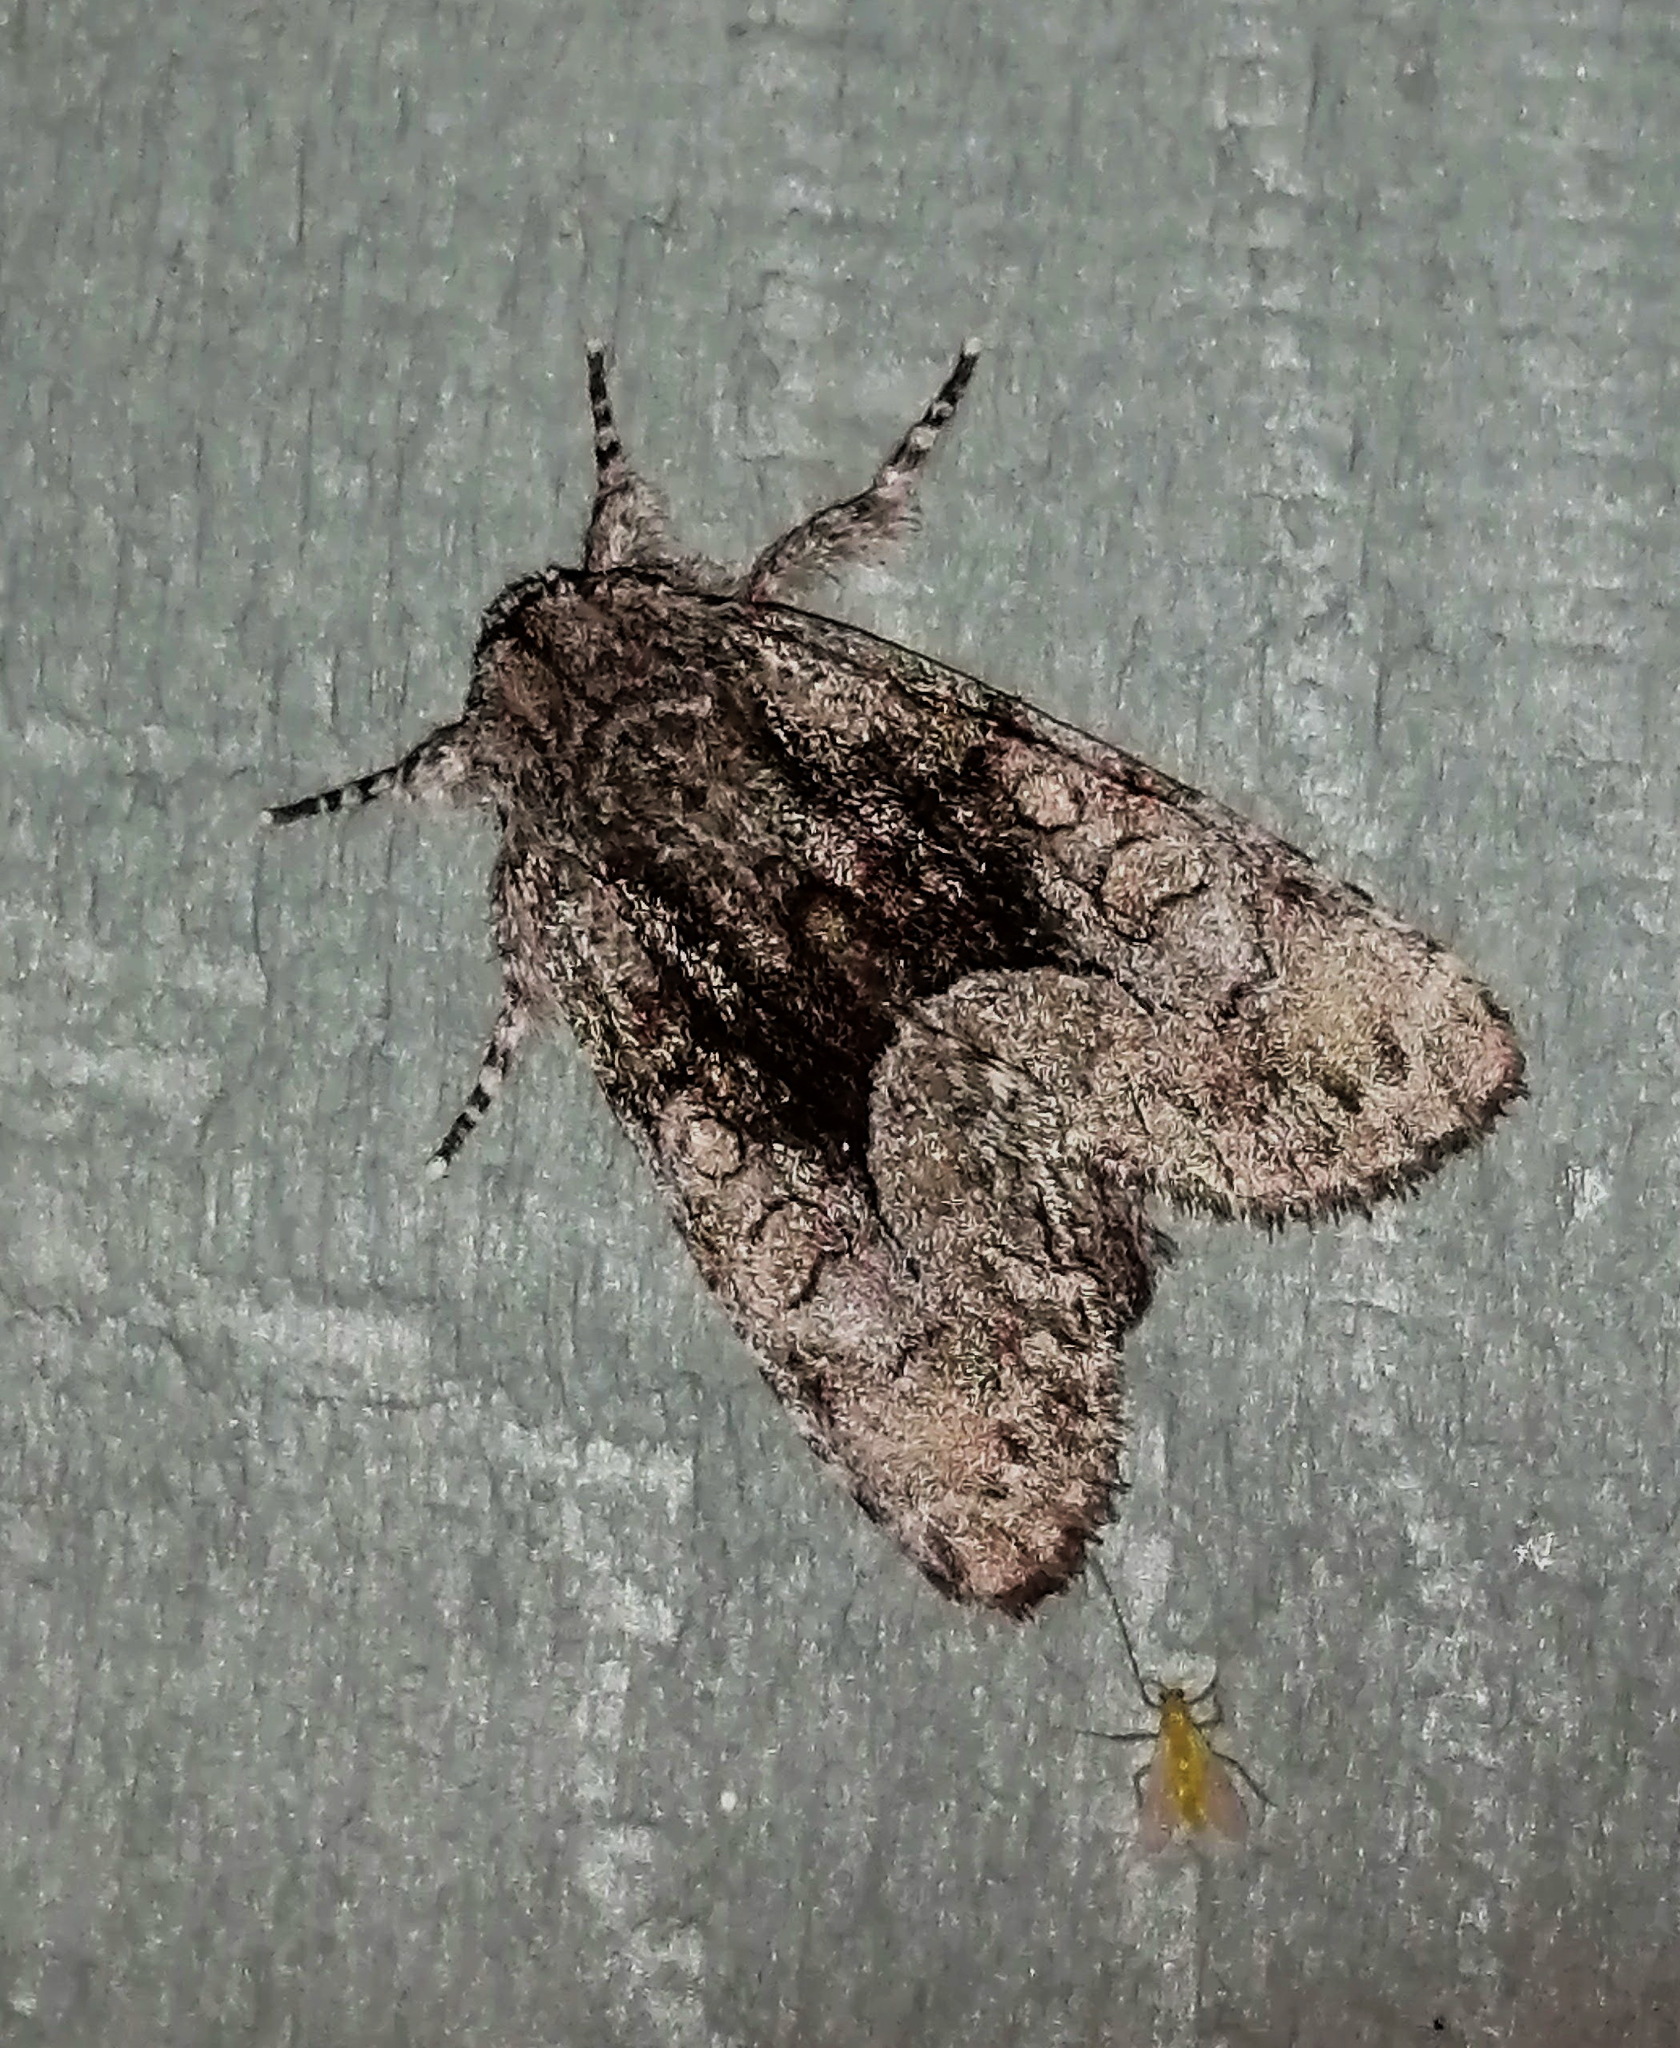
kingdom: Animalia
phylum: Arthropoda
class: Insecta
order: Lepidoptera
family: Noctuidae
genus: Raphia
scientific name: Raphia frater
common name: Brother
